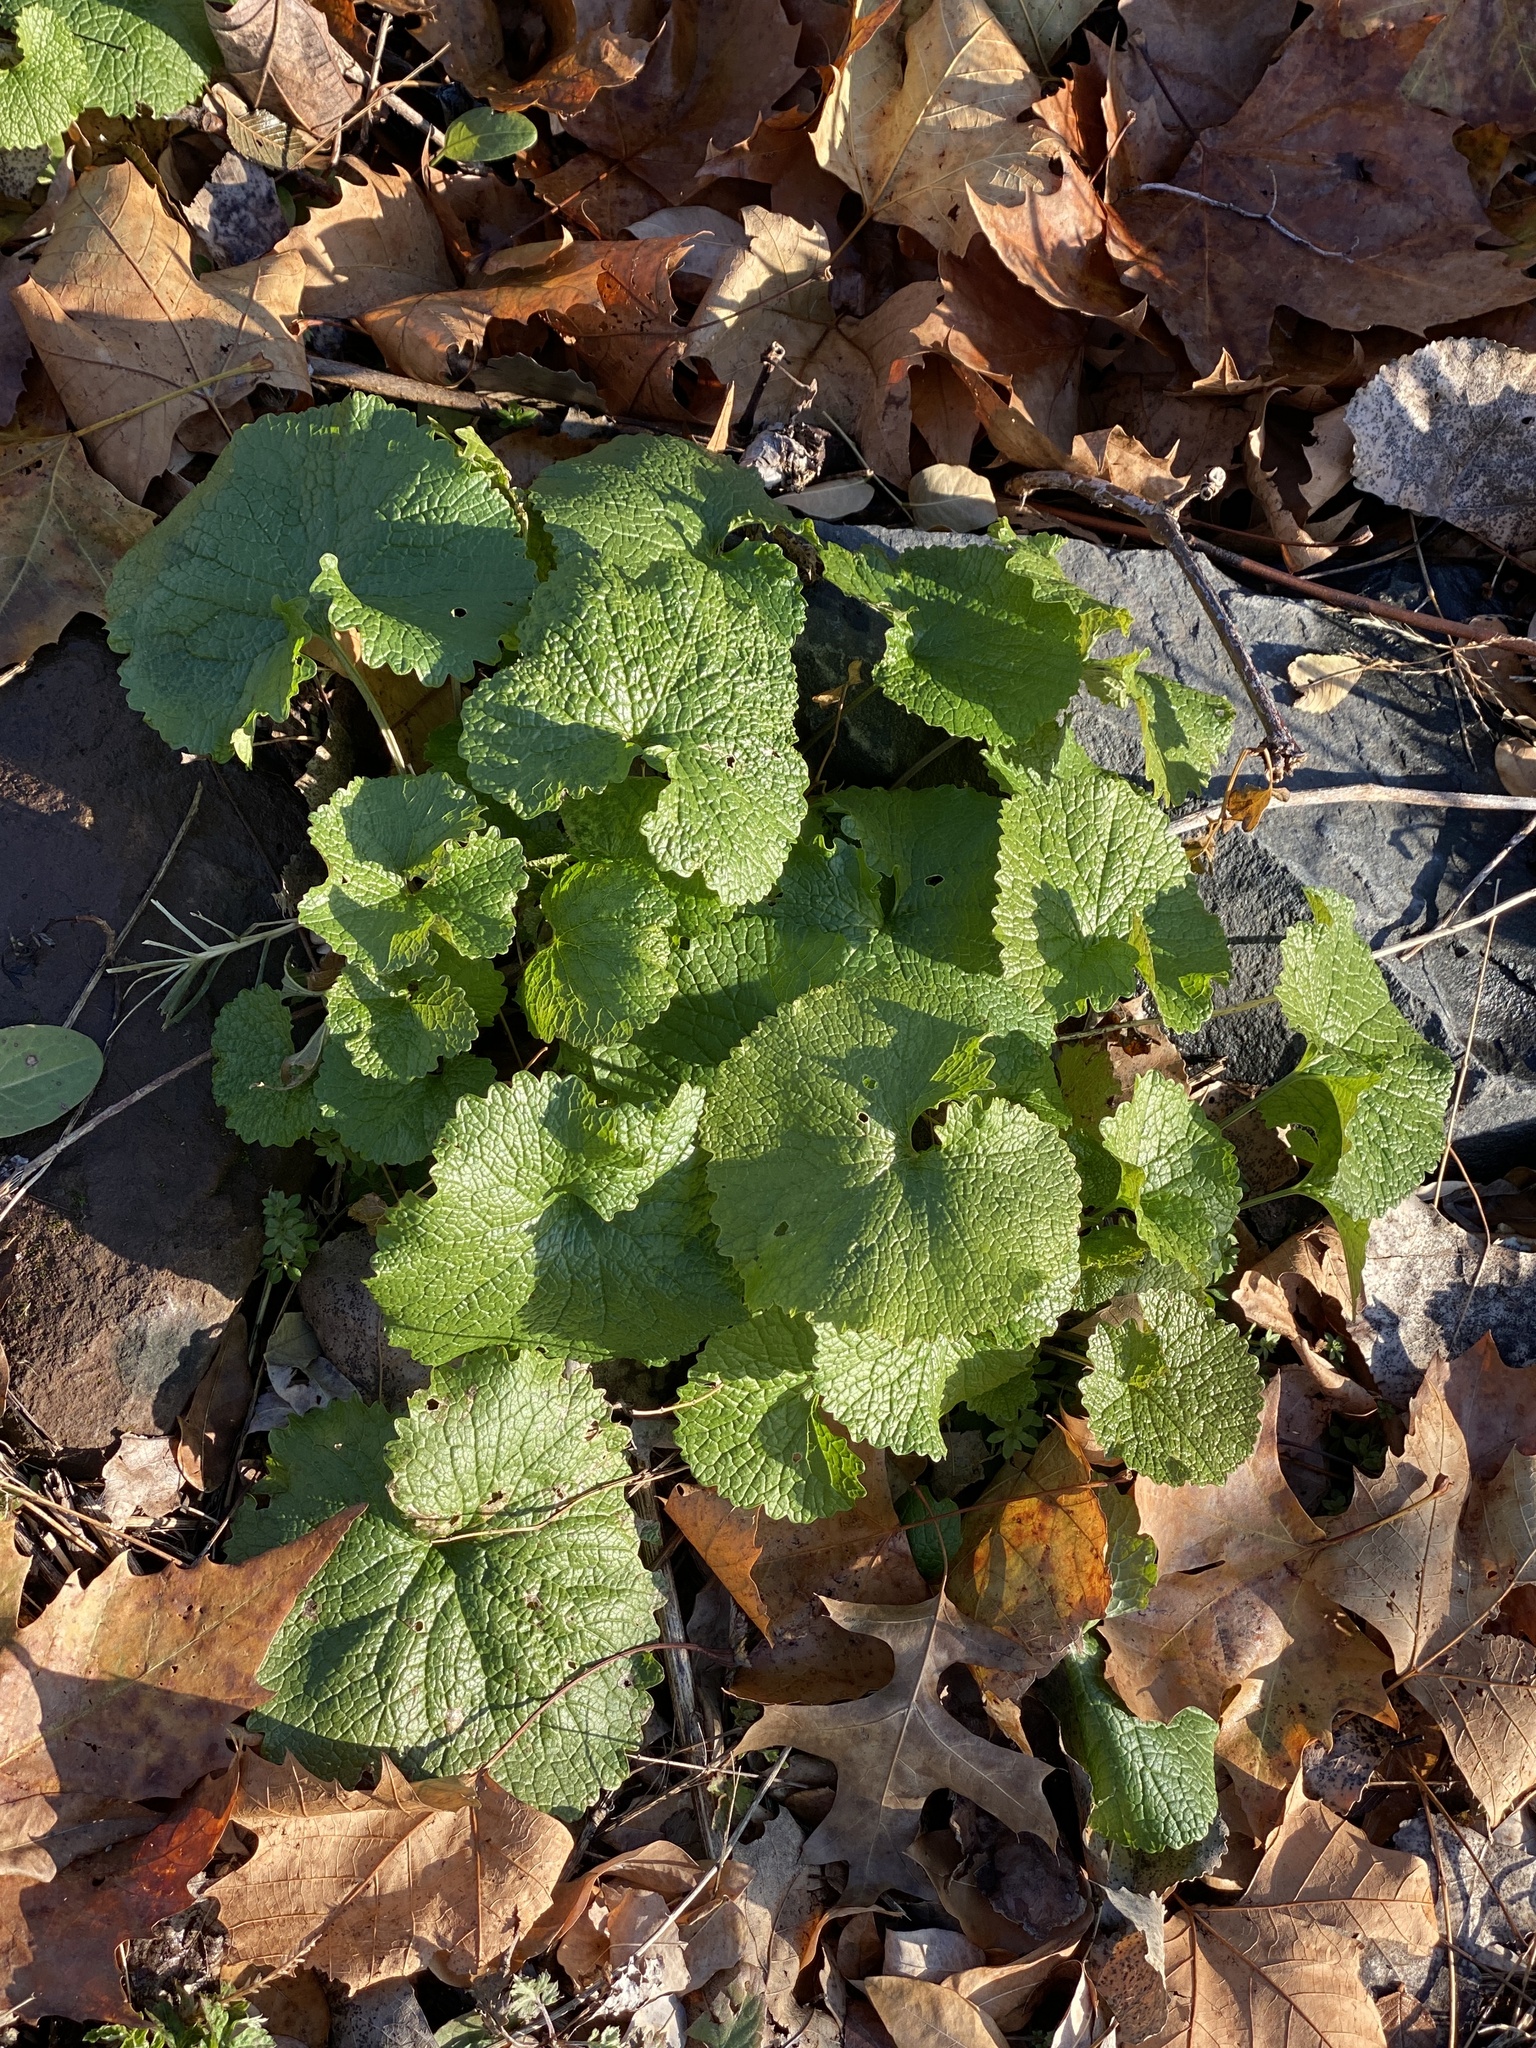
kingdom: Plantae
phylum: Tracheophyta
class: Magnoliopsida
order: Brassicales
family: Brassicaceae
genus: Alliaria
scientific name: Alliaria petiolata
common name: Garlic mustard
